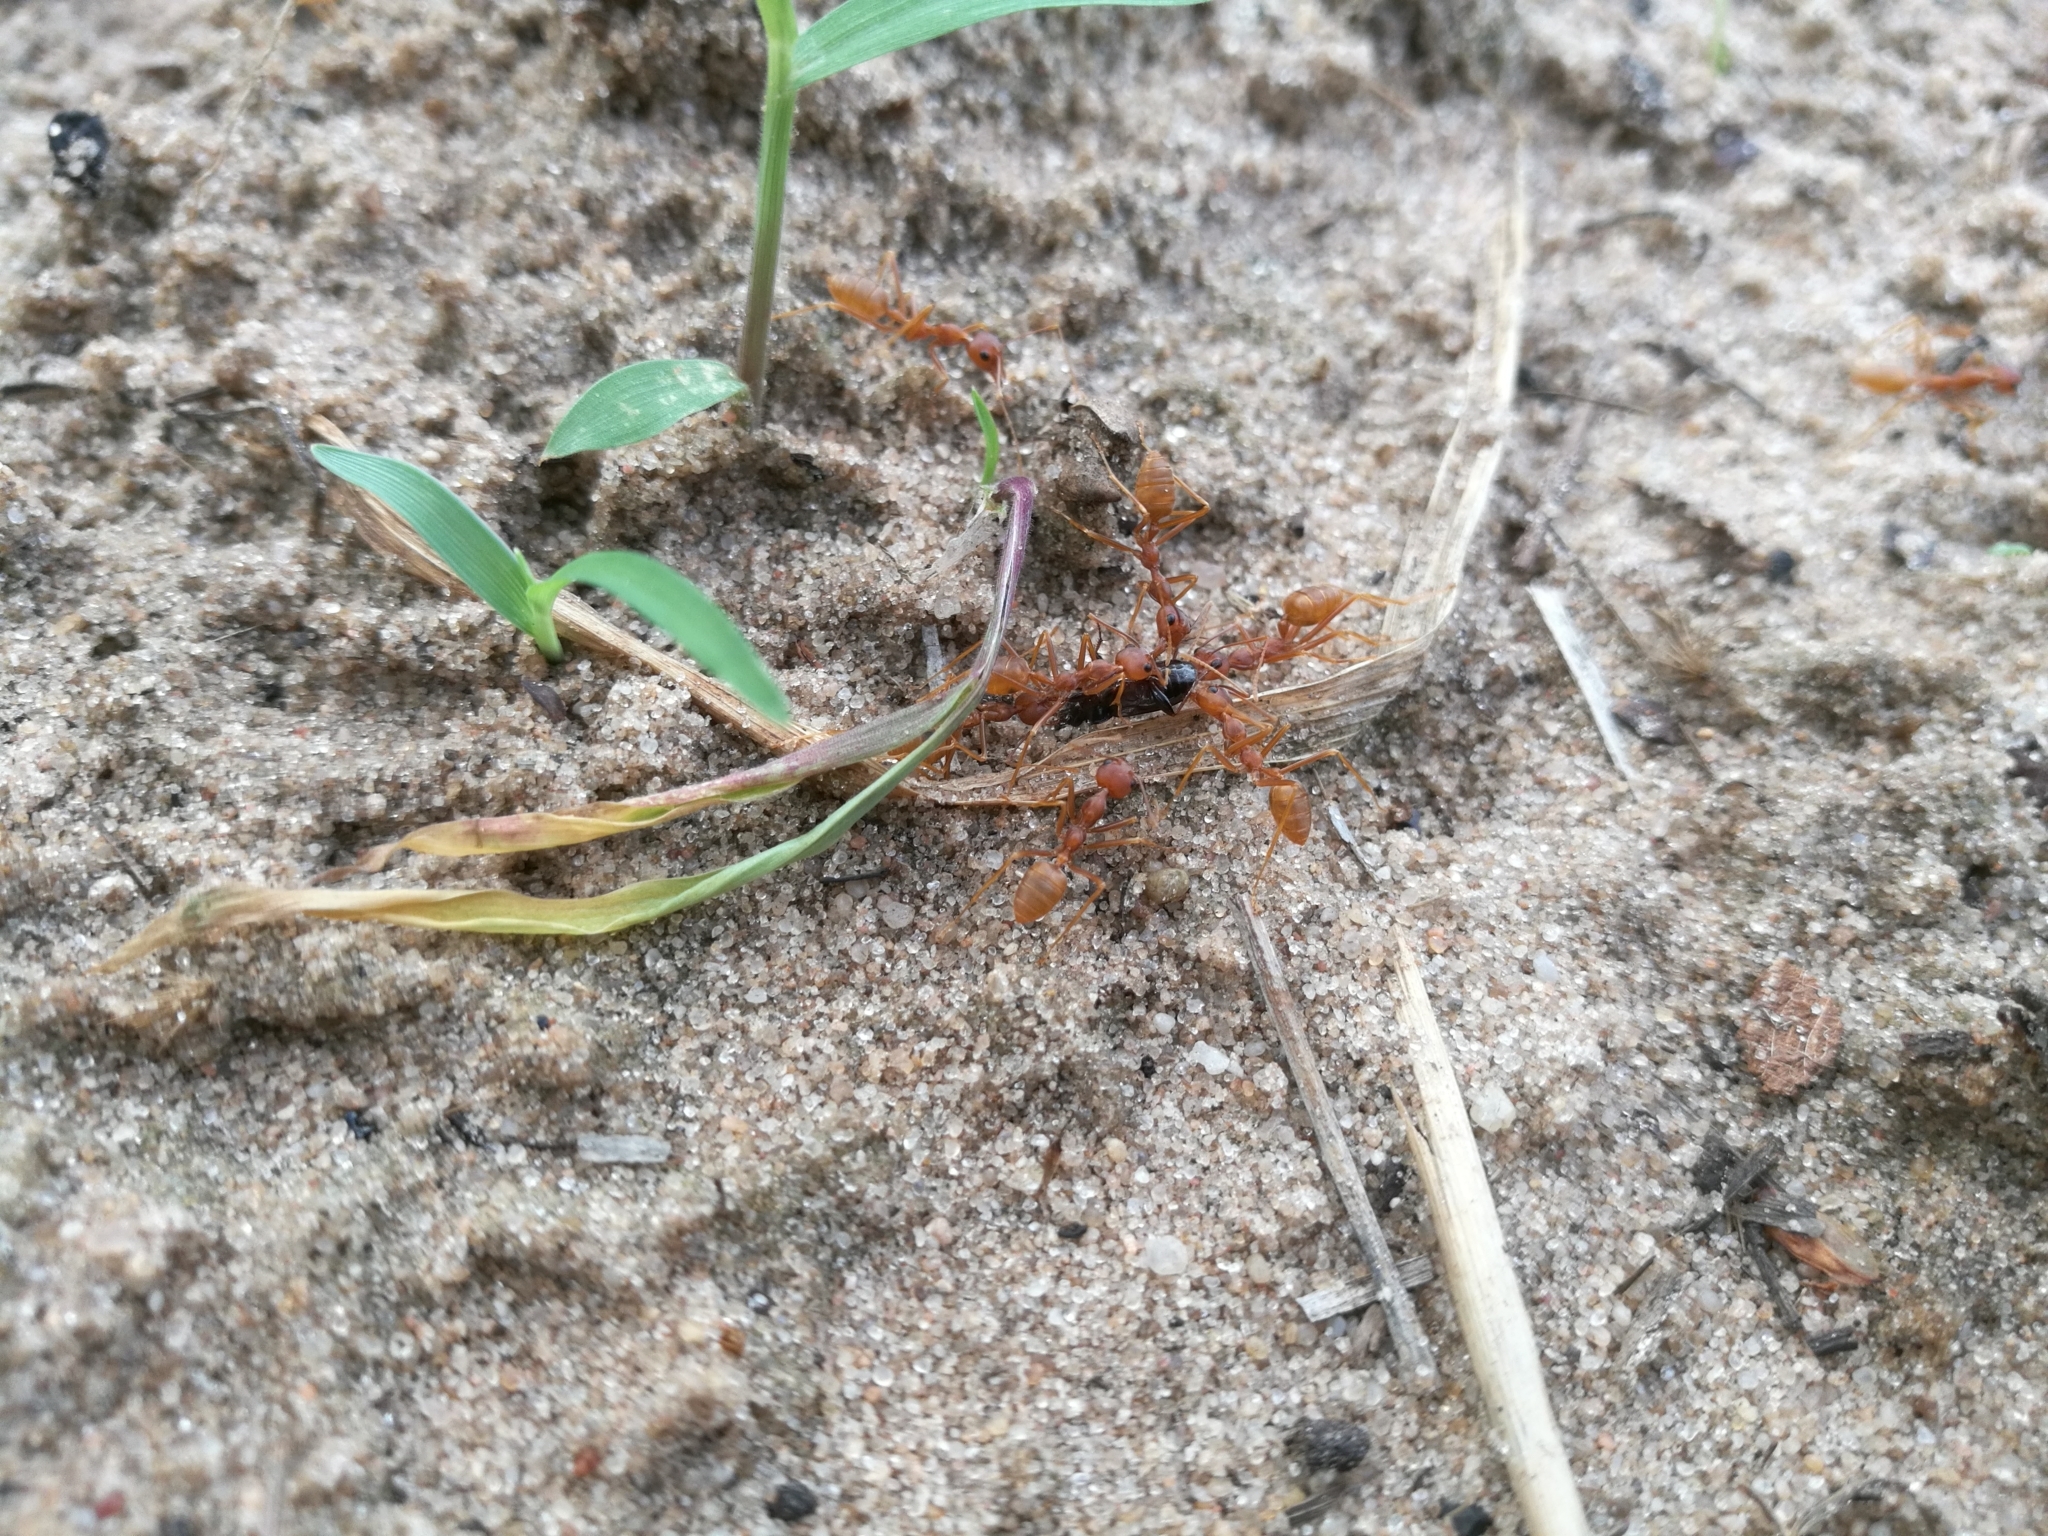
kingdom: Animalia
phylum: Arthropoda
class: Insecta
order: Hymenoptera
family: Formicidae
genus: Oecophylla
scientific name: Oecophylla longinoda
